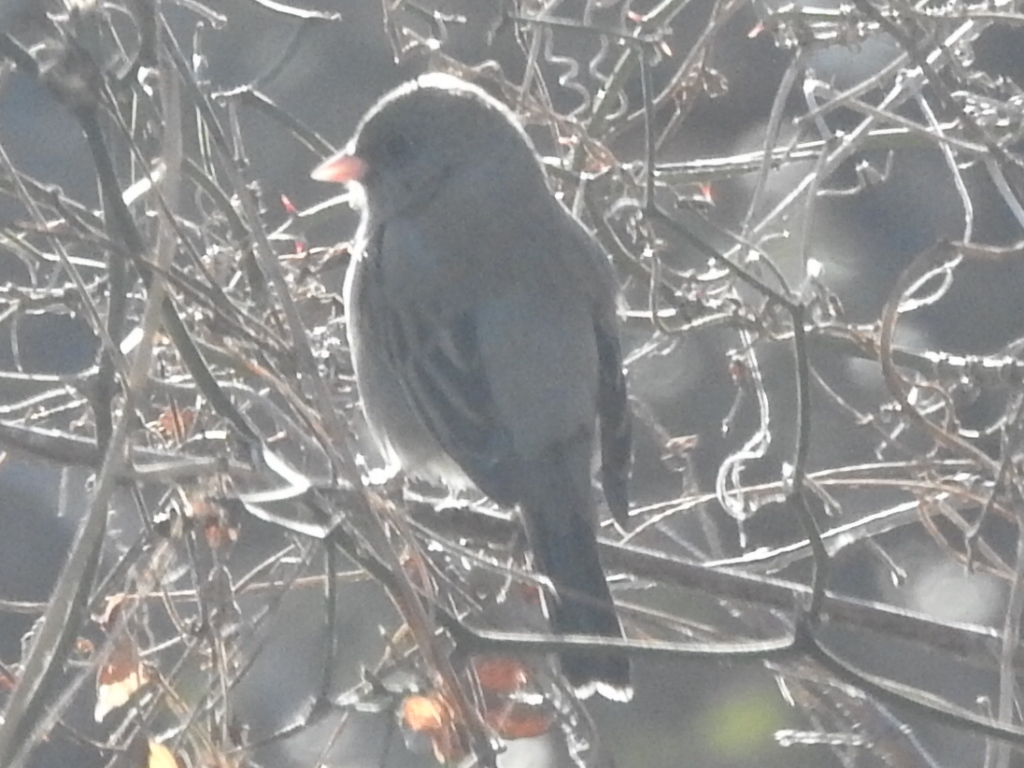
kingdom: Animalia
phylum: Chordata
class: Aves
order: Passeriformes
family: Passerellidae
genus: Junco
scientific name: Junco hyemalis
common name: Dark-eyed junco
